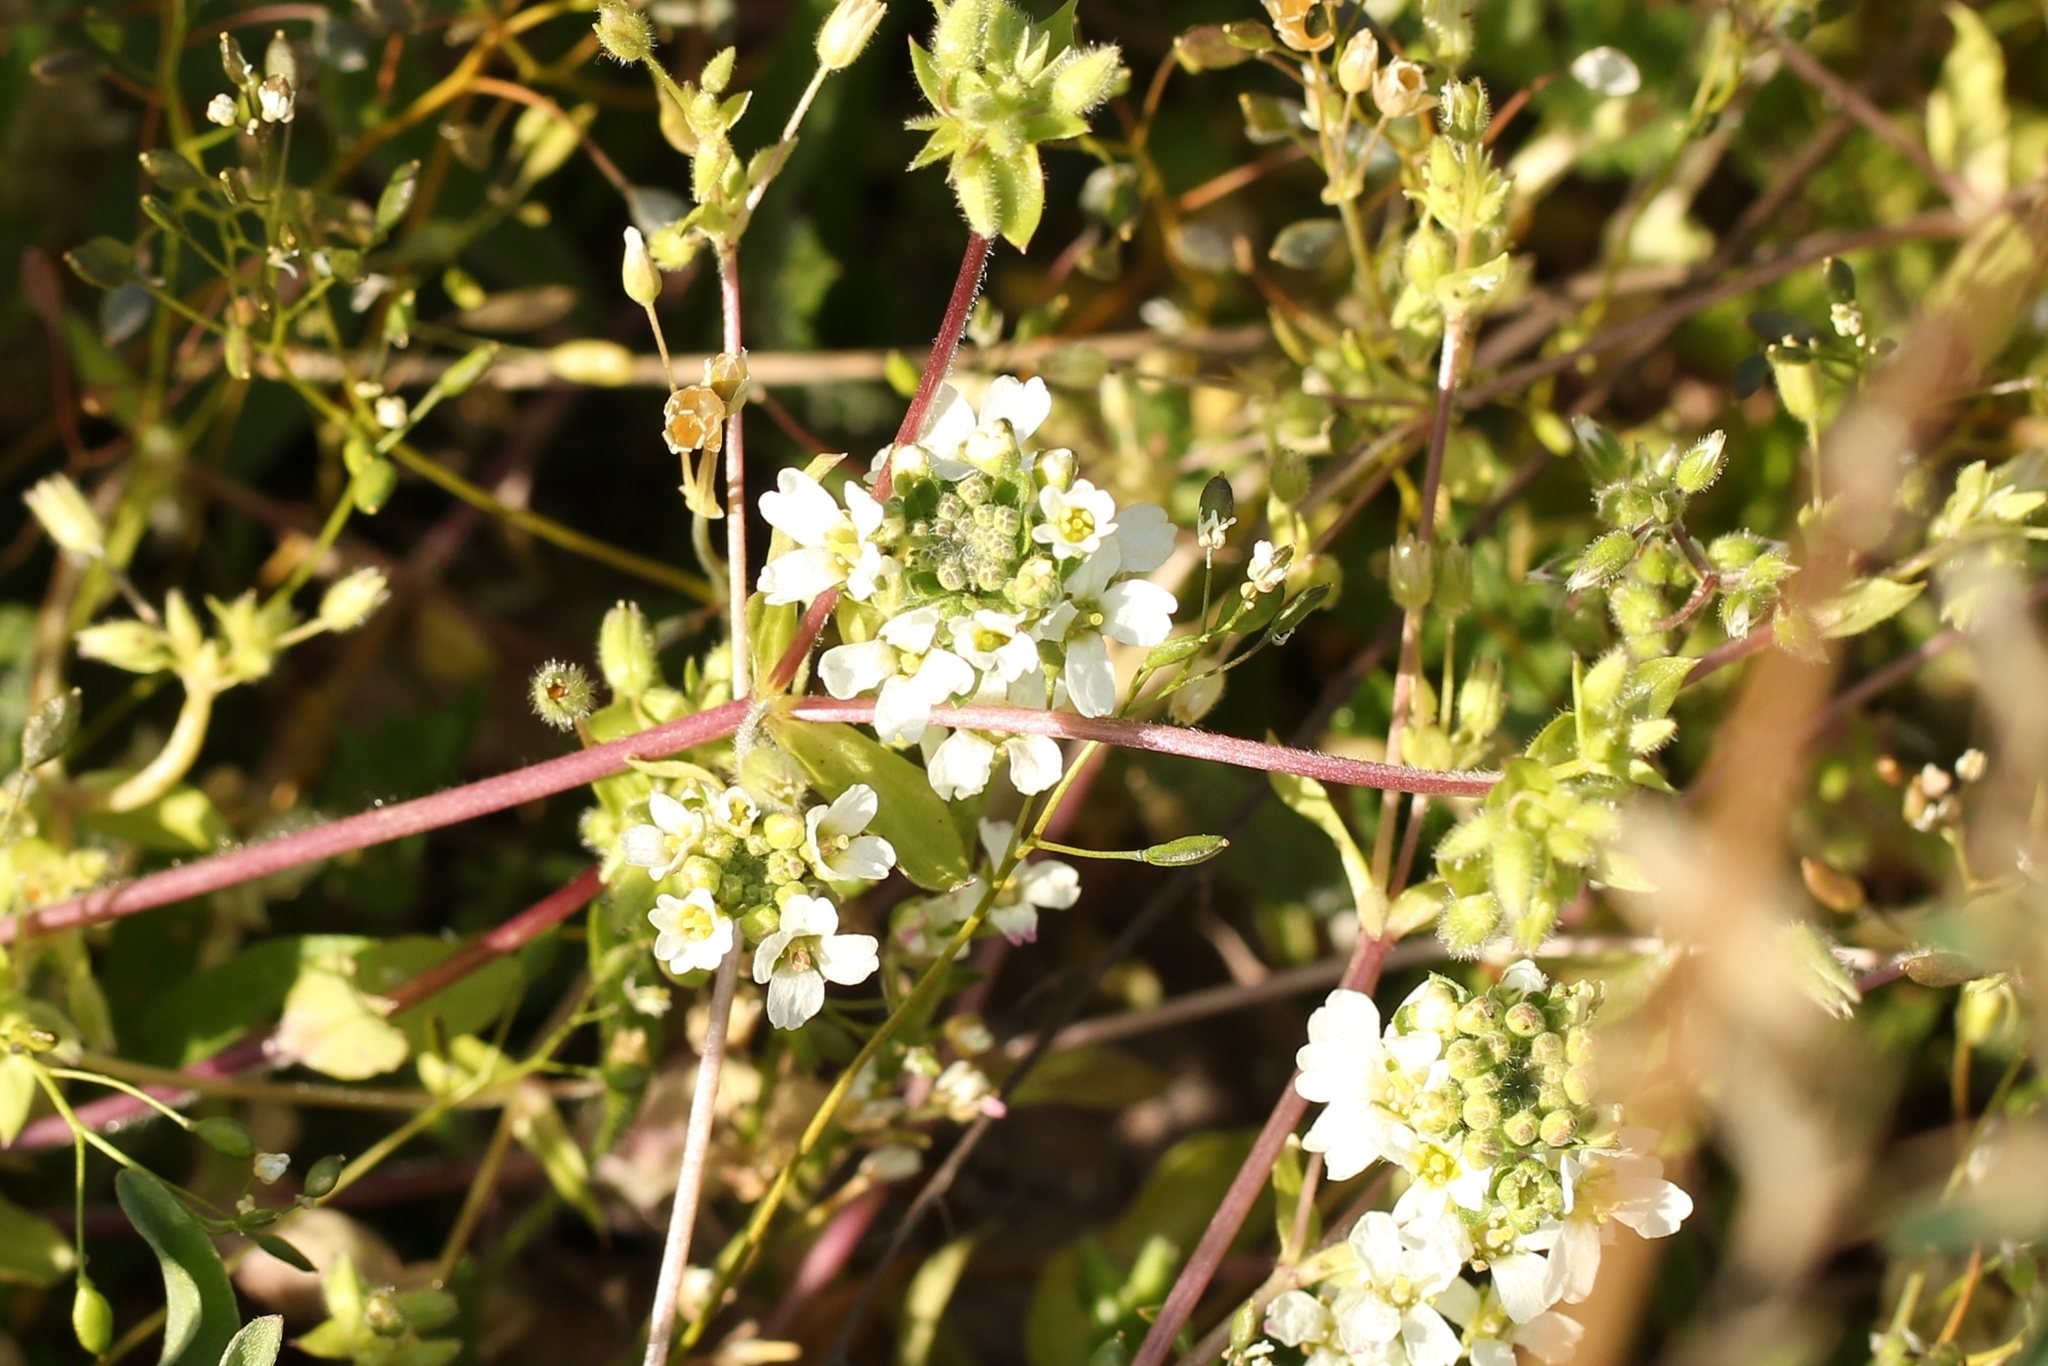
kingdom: Plantae
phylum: Tracheophyta
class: Magnoliopsida
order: Brassicales
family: Brassicaceae
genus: Berteroa
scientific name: Berteroa incana
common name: Hoary alison
